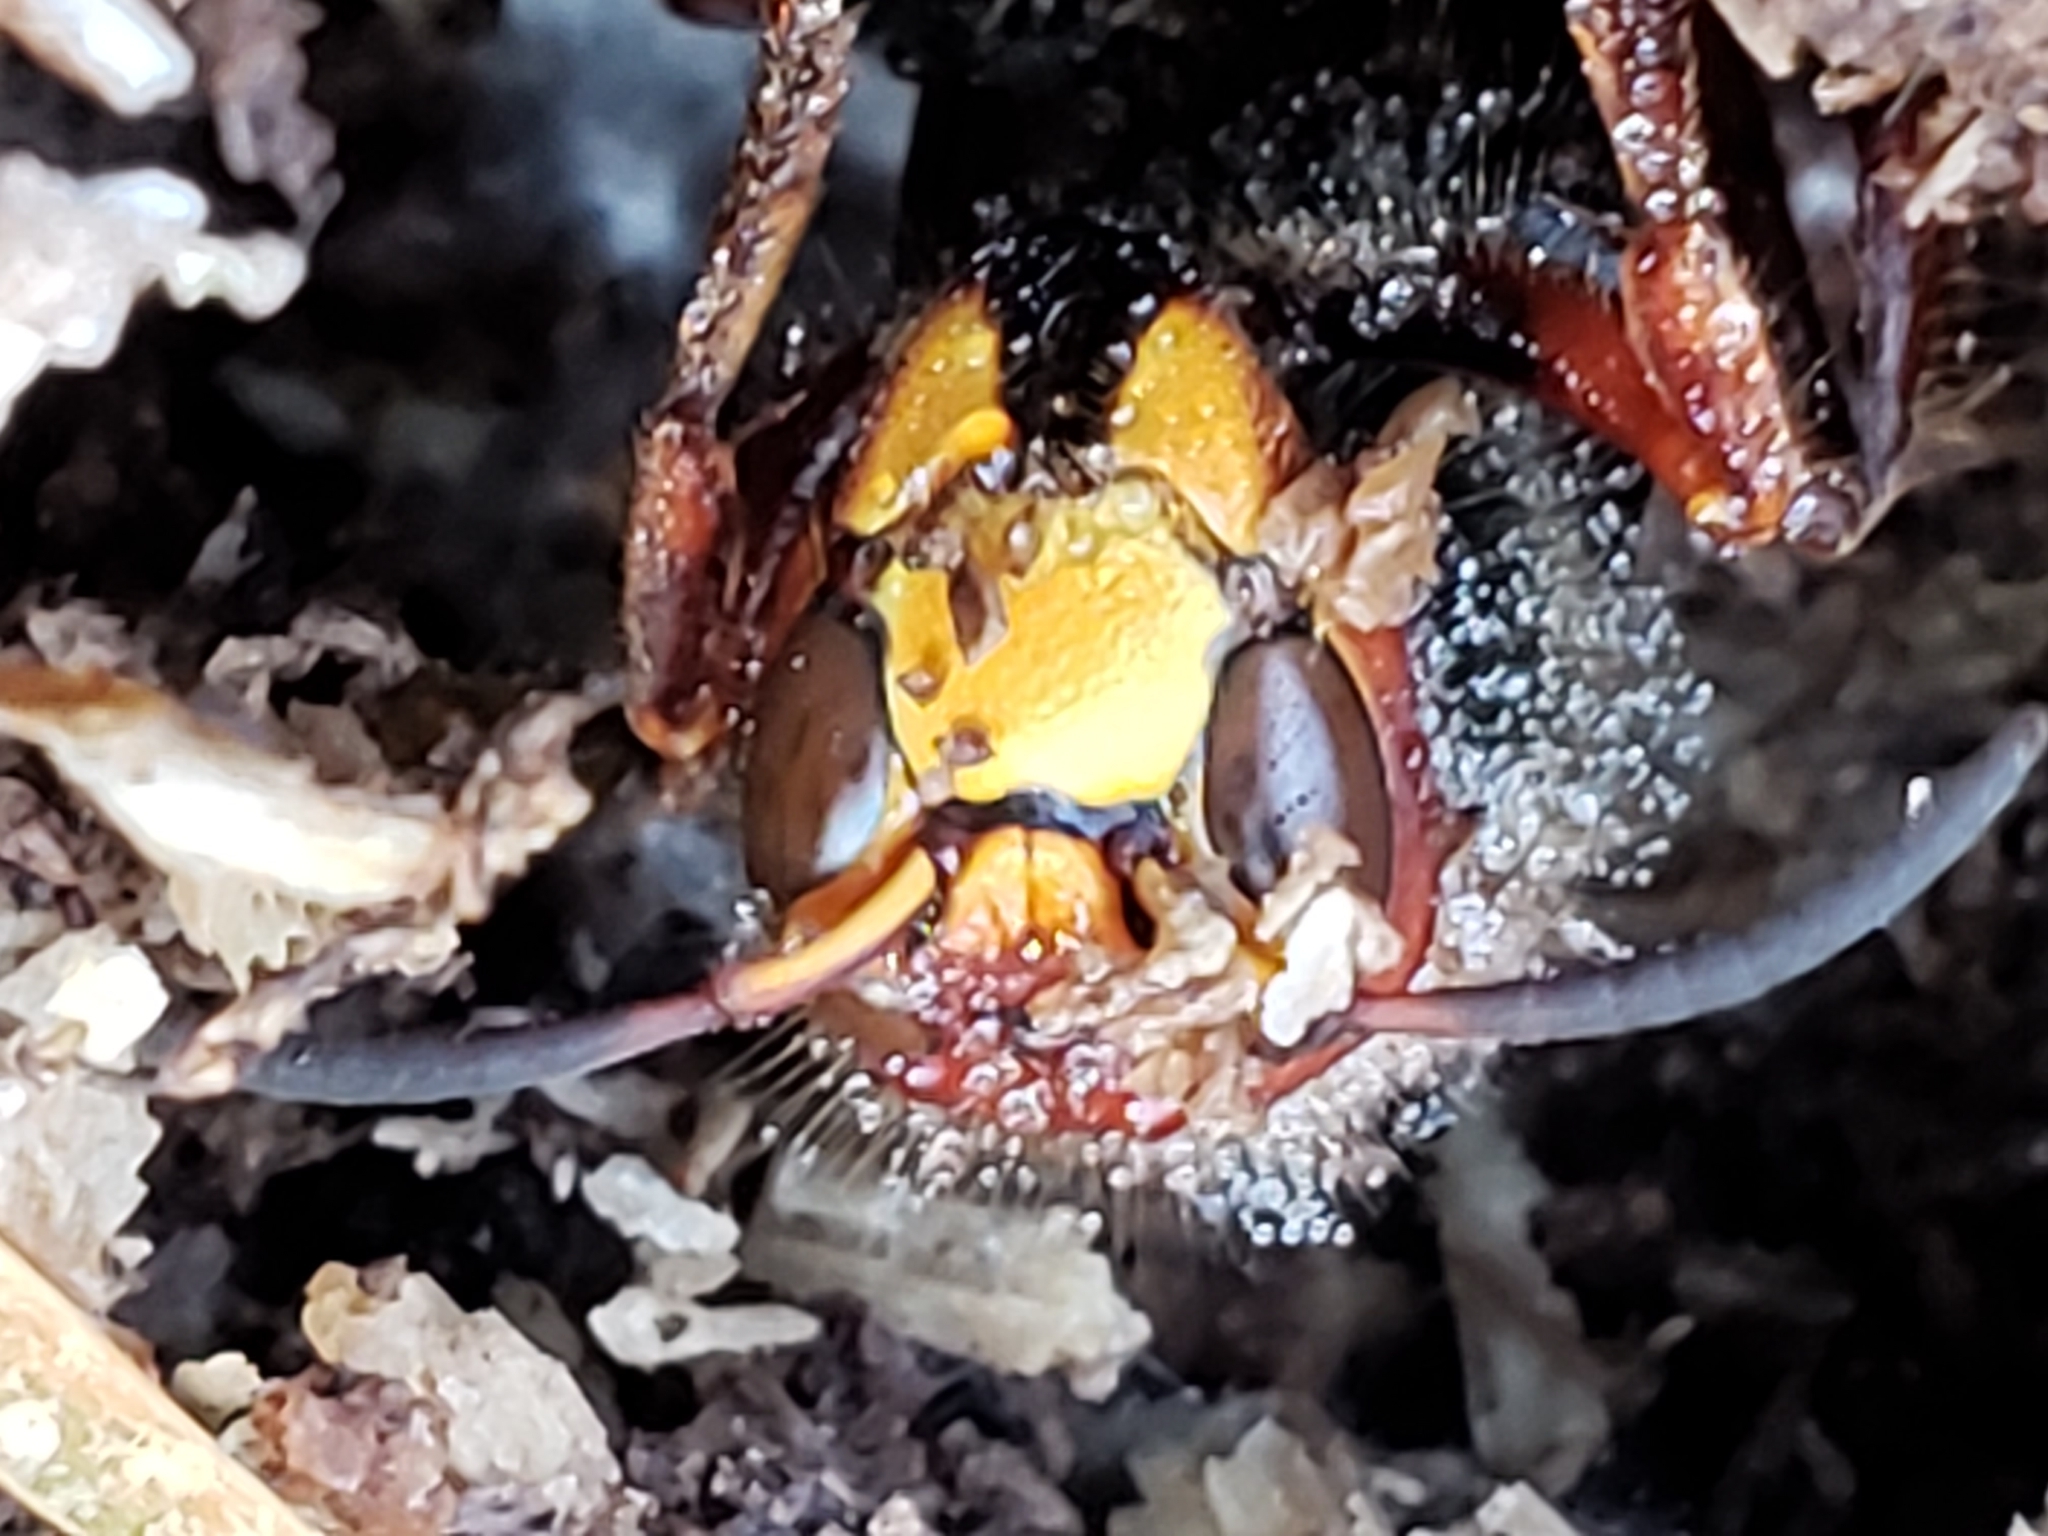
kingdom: Animalia
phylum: Arthropoda
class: Insecta
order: Hymenoptera
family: Vespidae
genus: Vespa
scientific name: Vespa crabro
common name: Hornet
